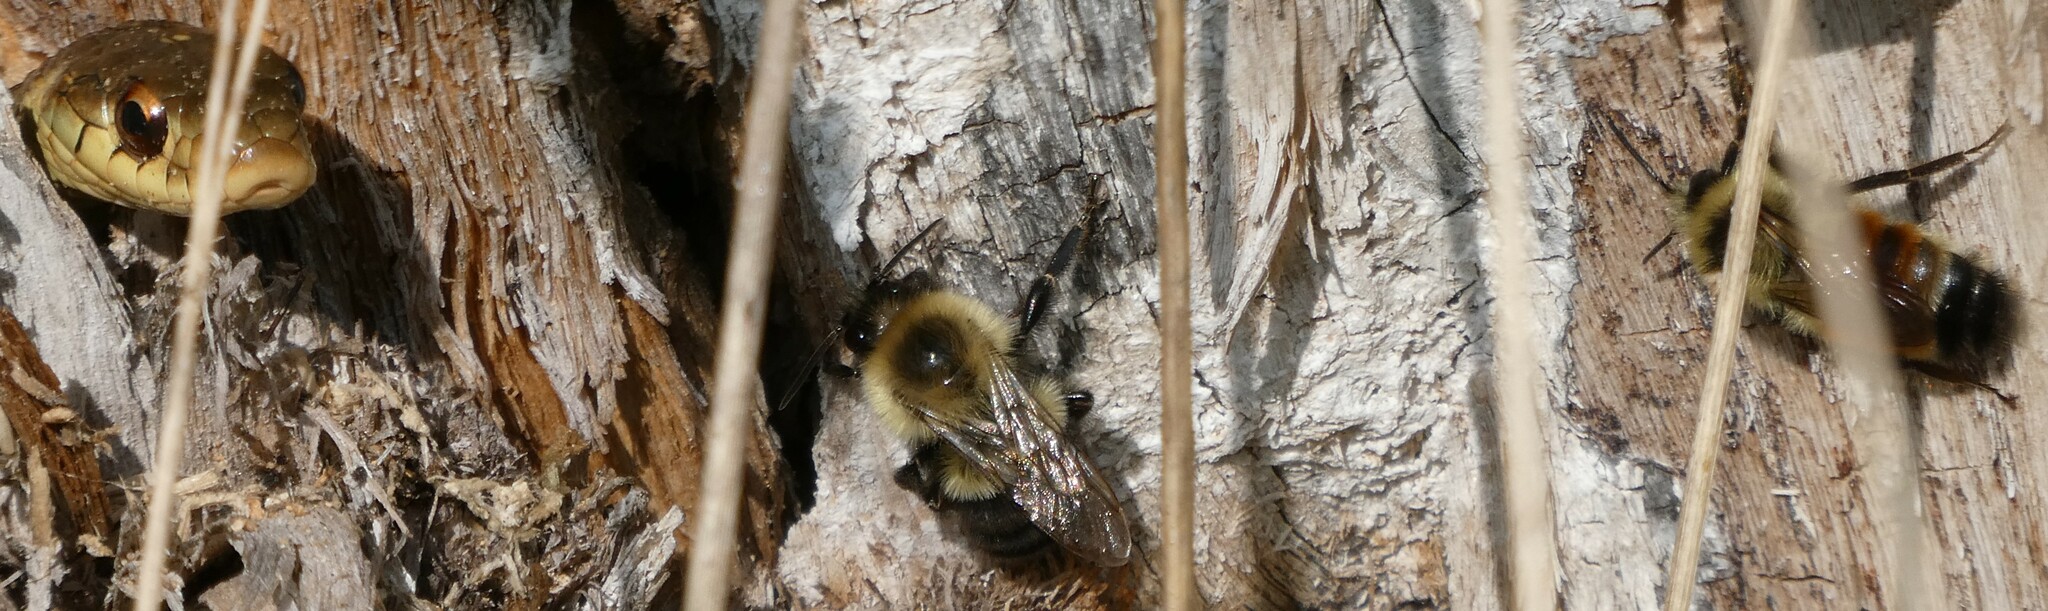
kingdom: Animalia
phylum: Arthropoda
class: Insecta
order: Hymenoptera
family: Apidae
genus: Bombus
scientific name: Bombus impatiens
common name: Common eastern bumble bee
